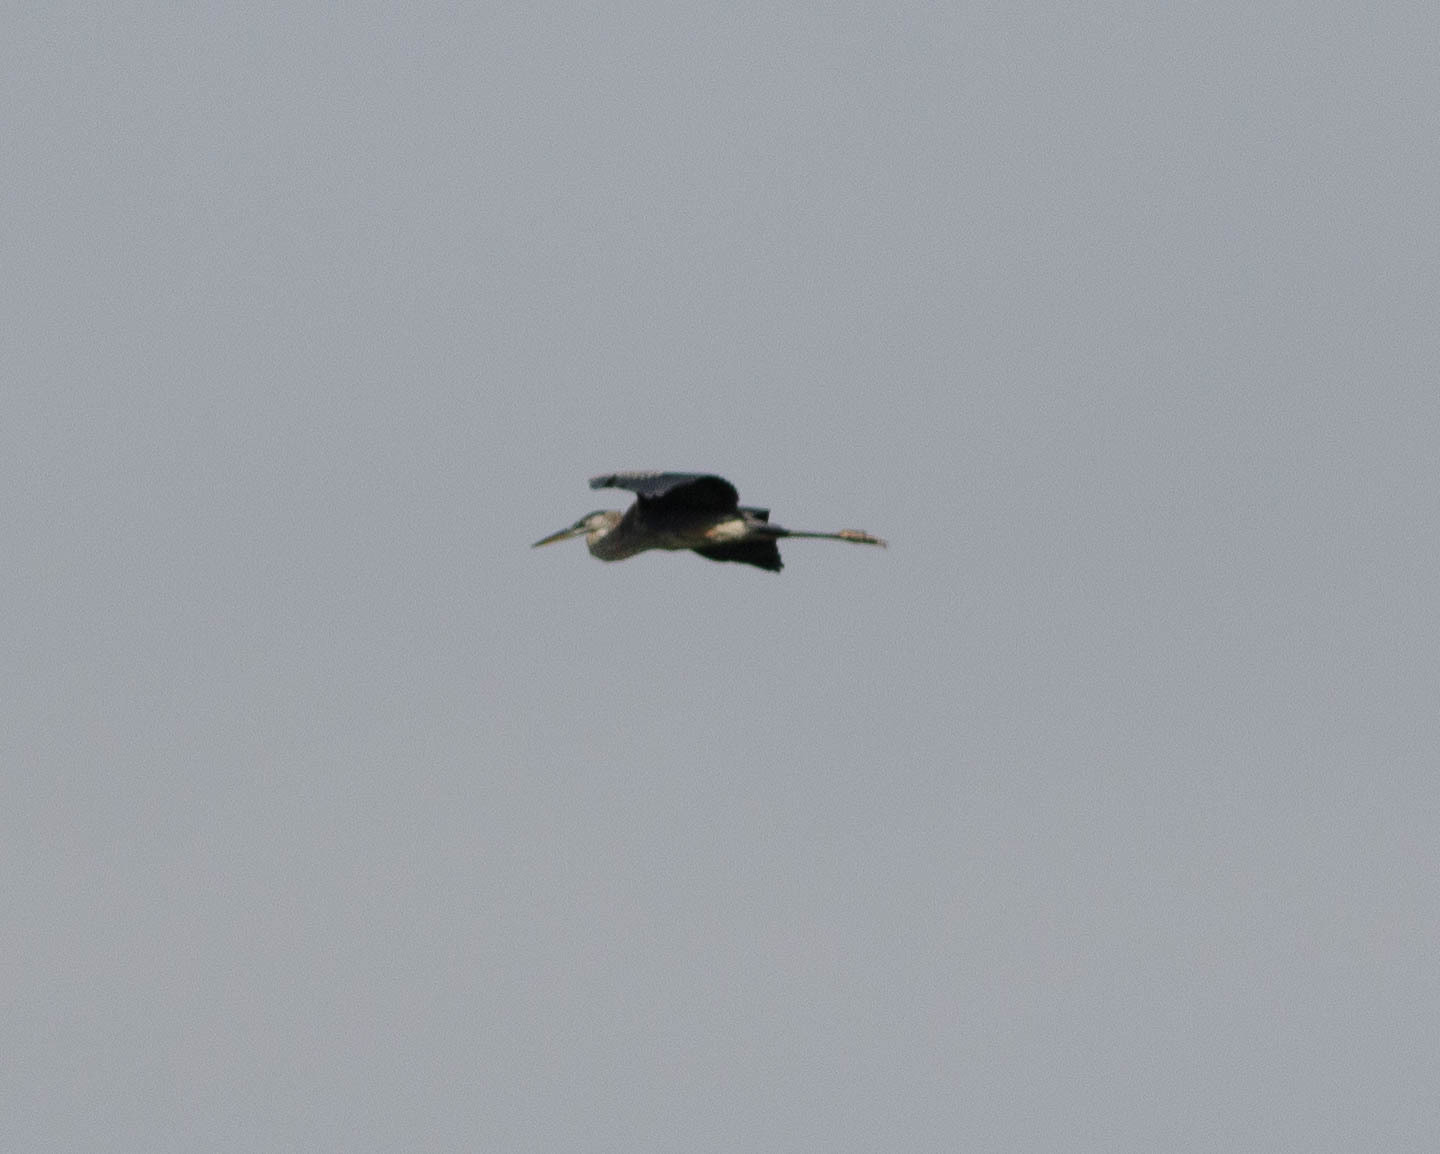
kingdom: Animalia
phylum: Chordata
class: Aves
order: Pelecaniformes
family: Ardeidae
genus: Ardea
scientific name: Ardea herodias
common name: Great blue heron
